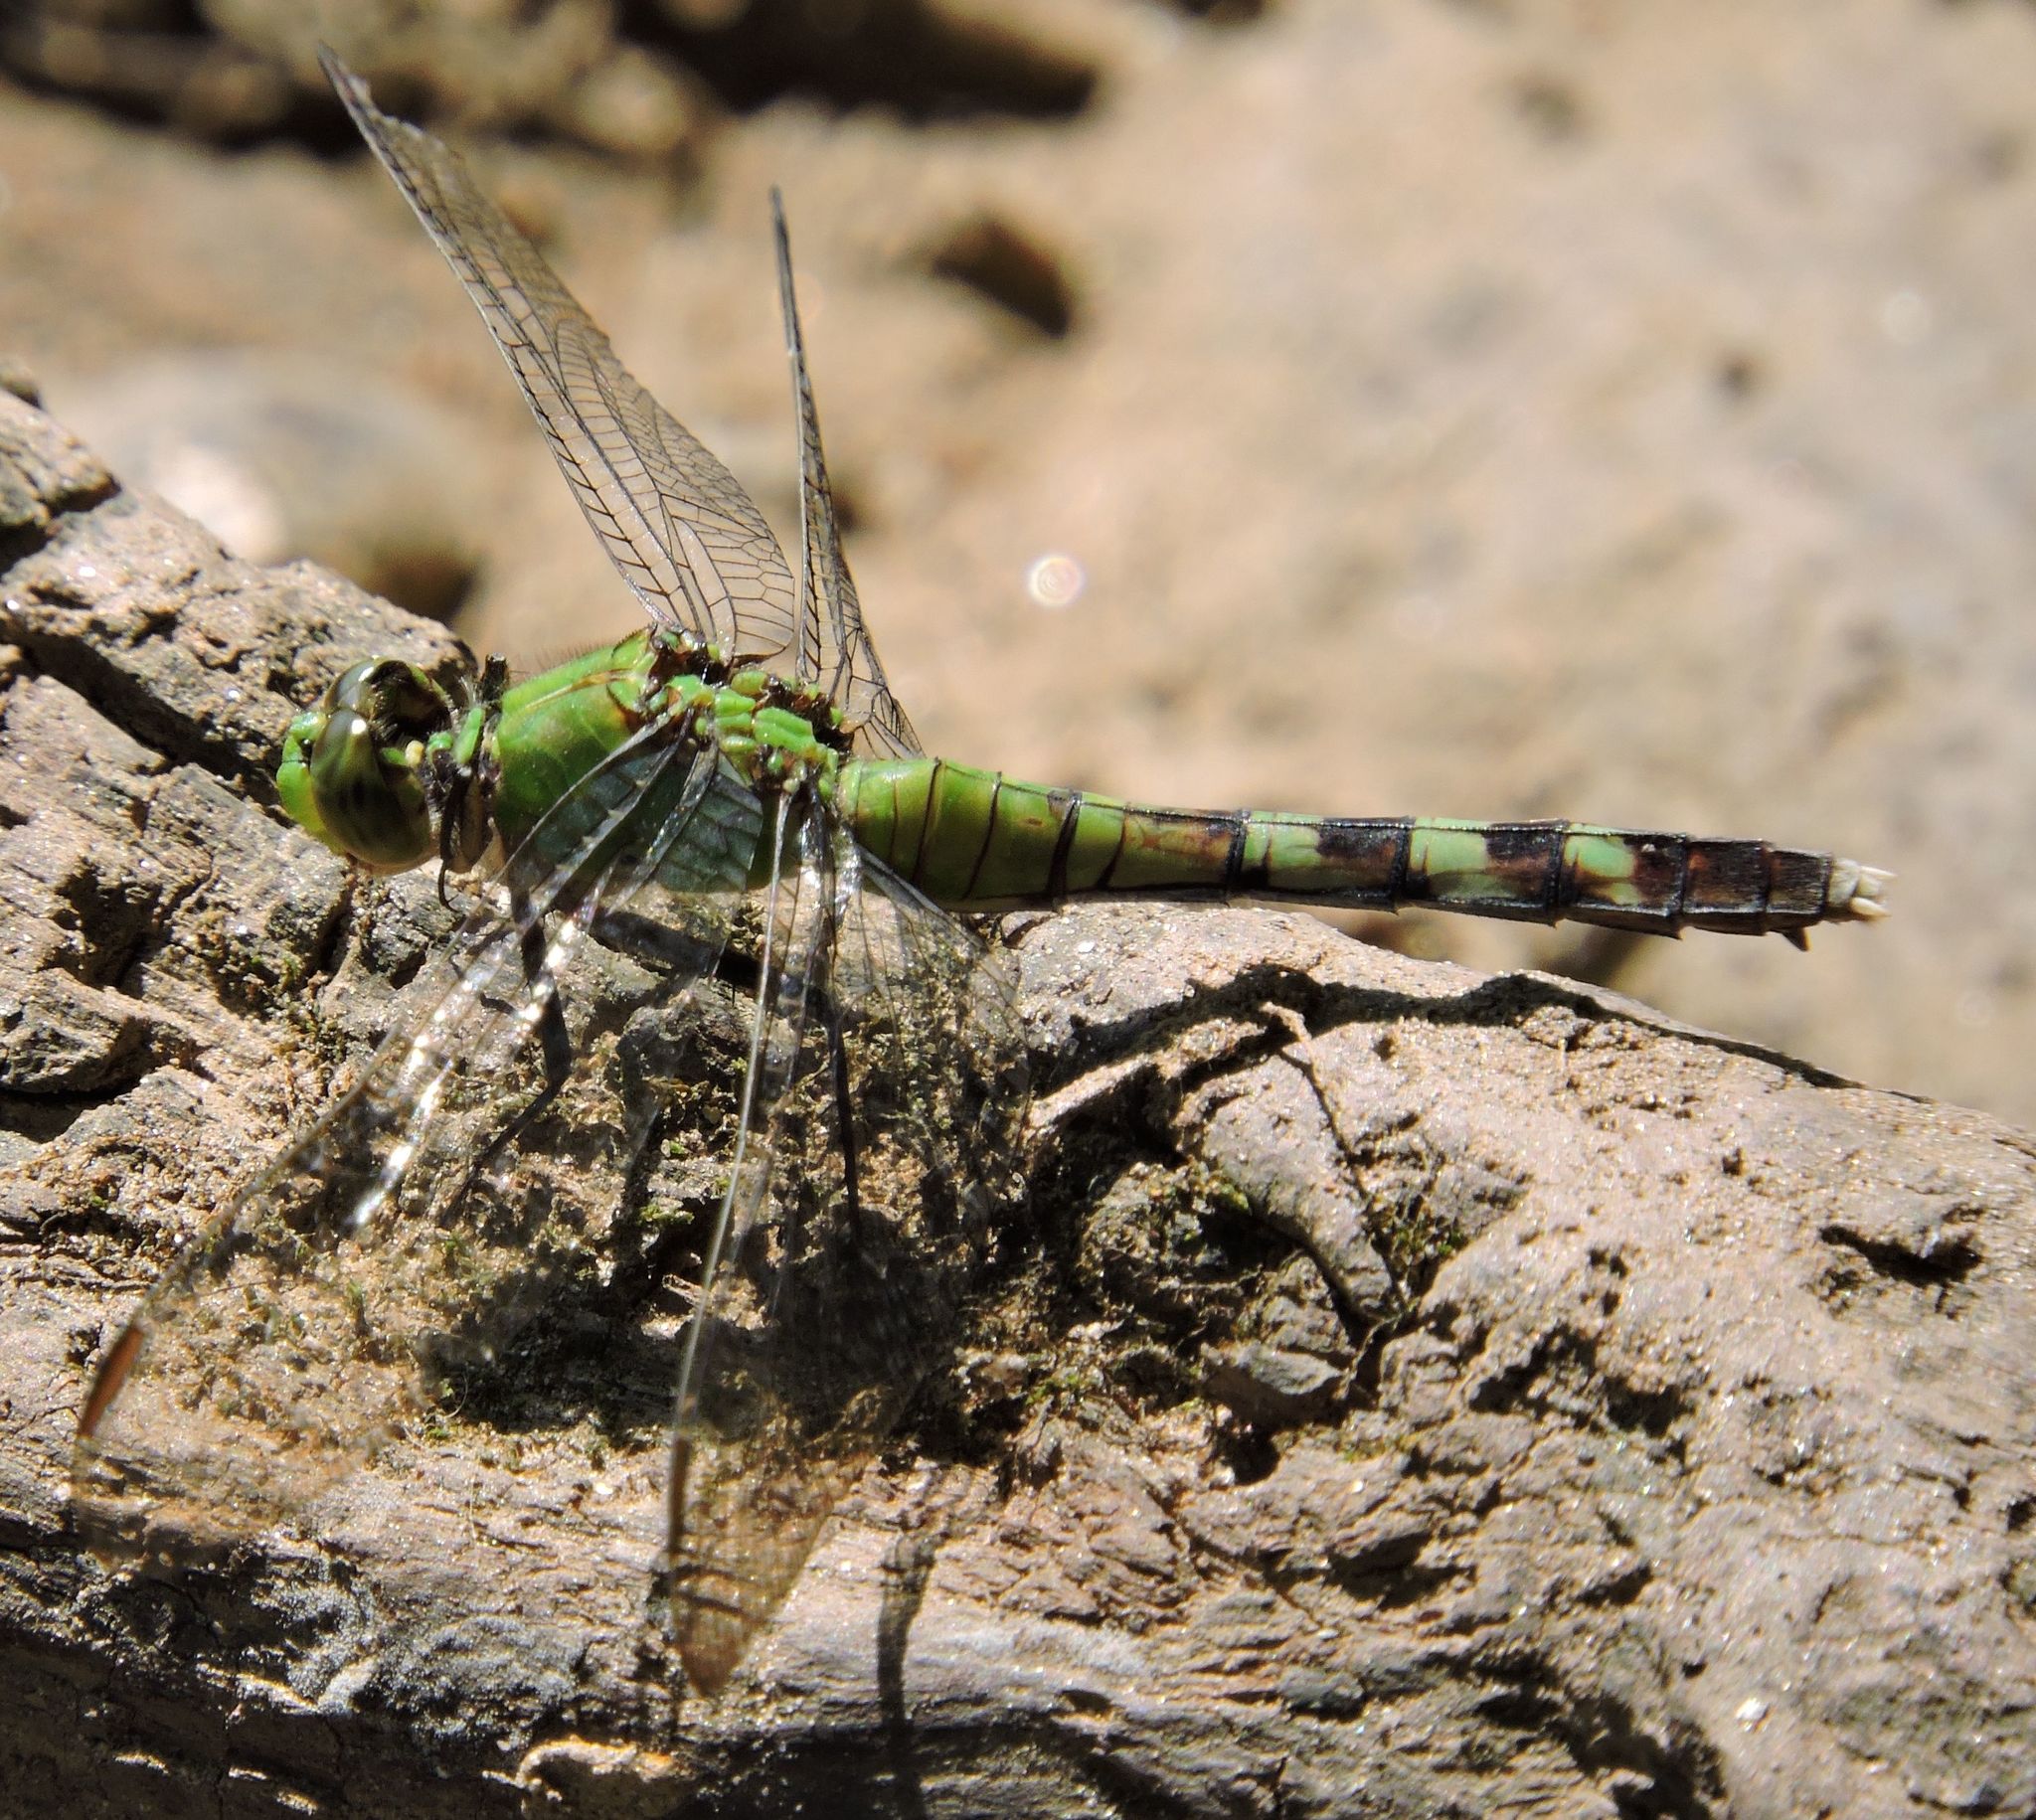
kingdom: Animalia
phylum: Arthropoda
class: Insecta
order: Odonata
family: Libellulidae
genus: Erythemis
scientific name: Erythemis simplicicollis
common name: Eastern pondhawk
